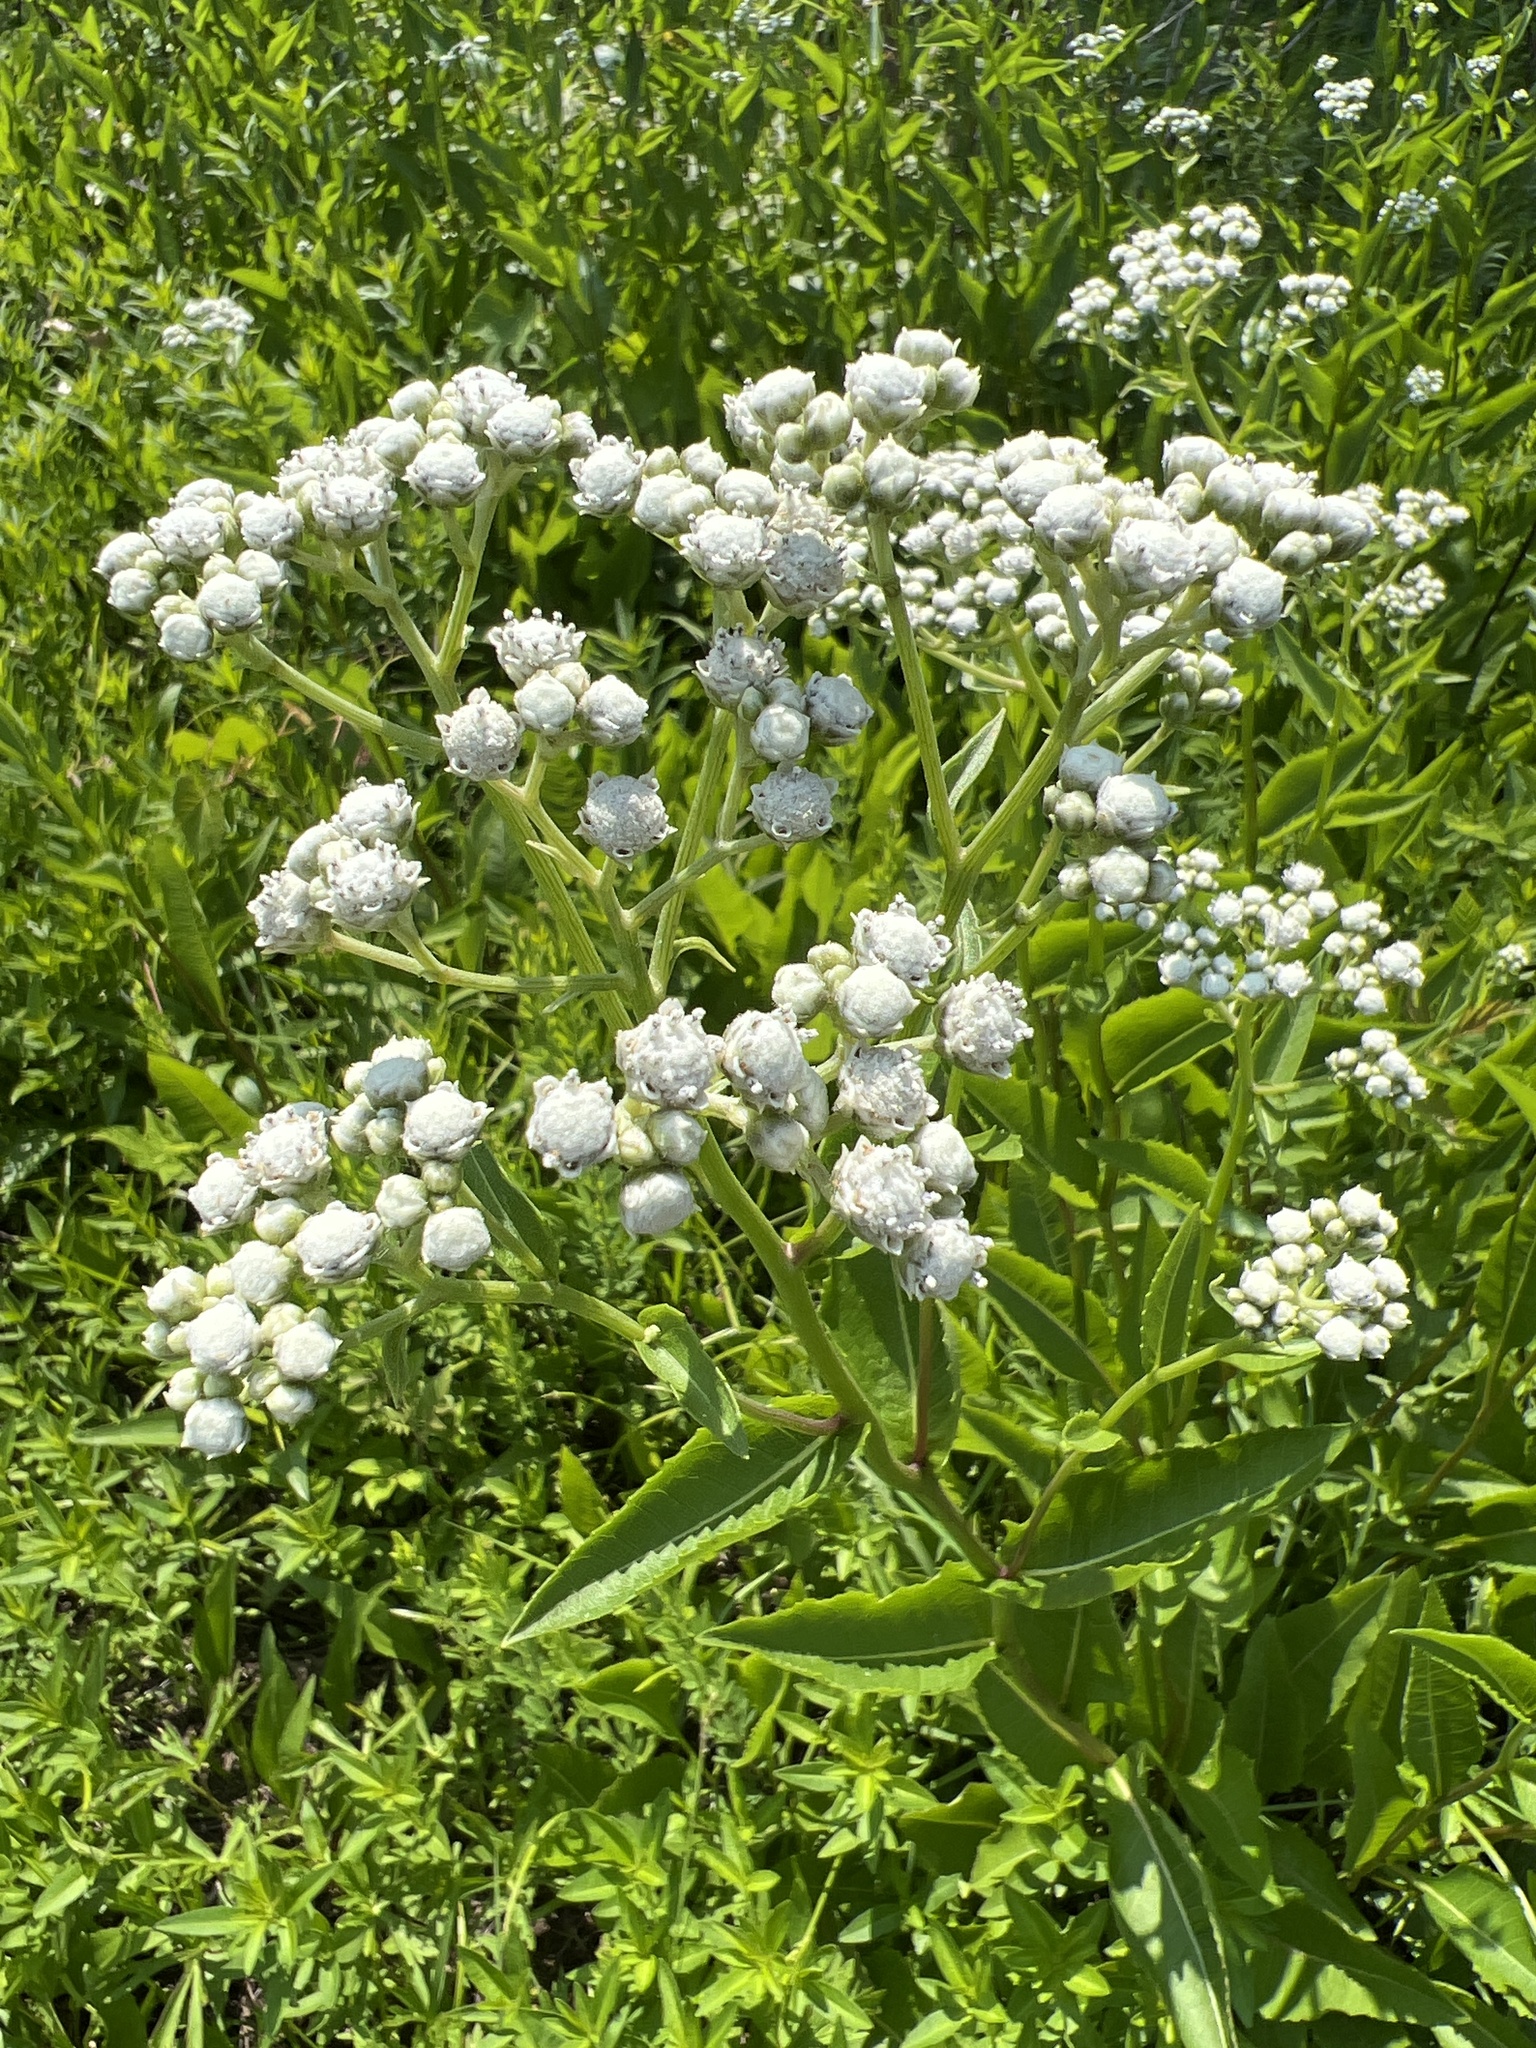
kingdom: Plantae
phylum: Tracheophyta
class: Magnoliopsida
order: Asterales
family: Asteraceae
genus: Parthenium
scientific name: Parthenium integrifolium
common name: American feverfew
